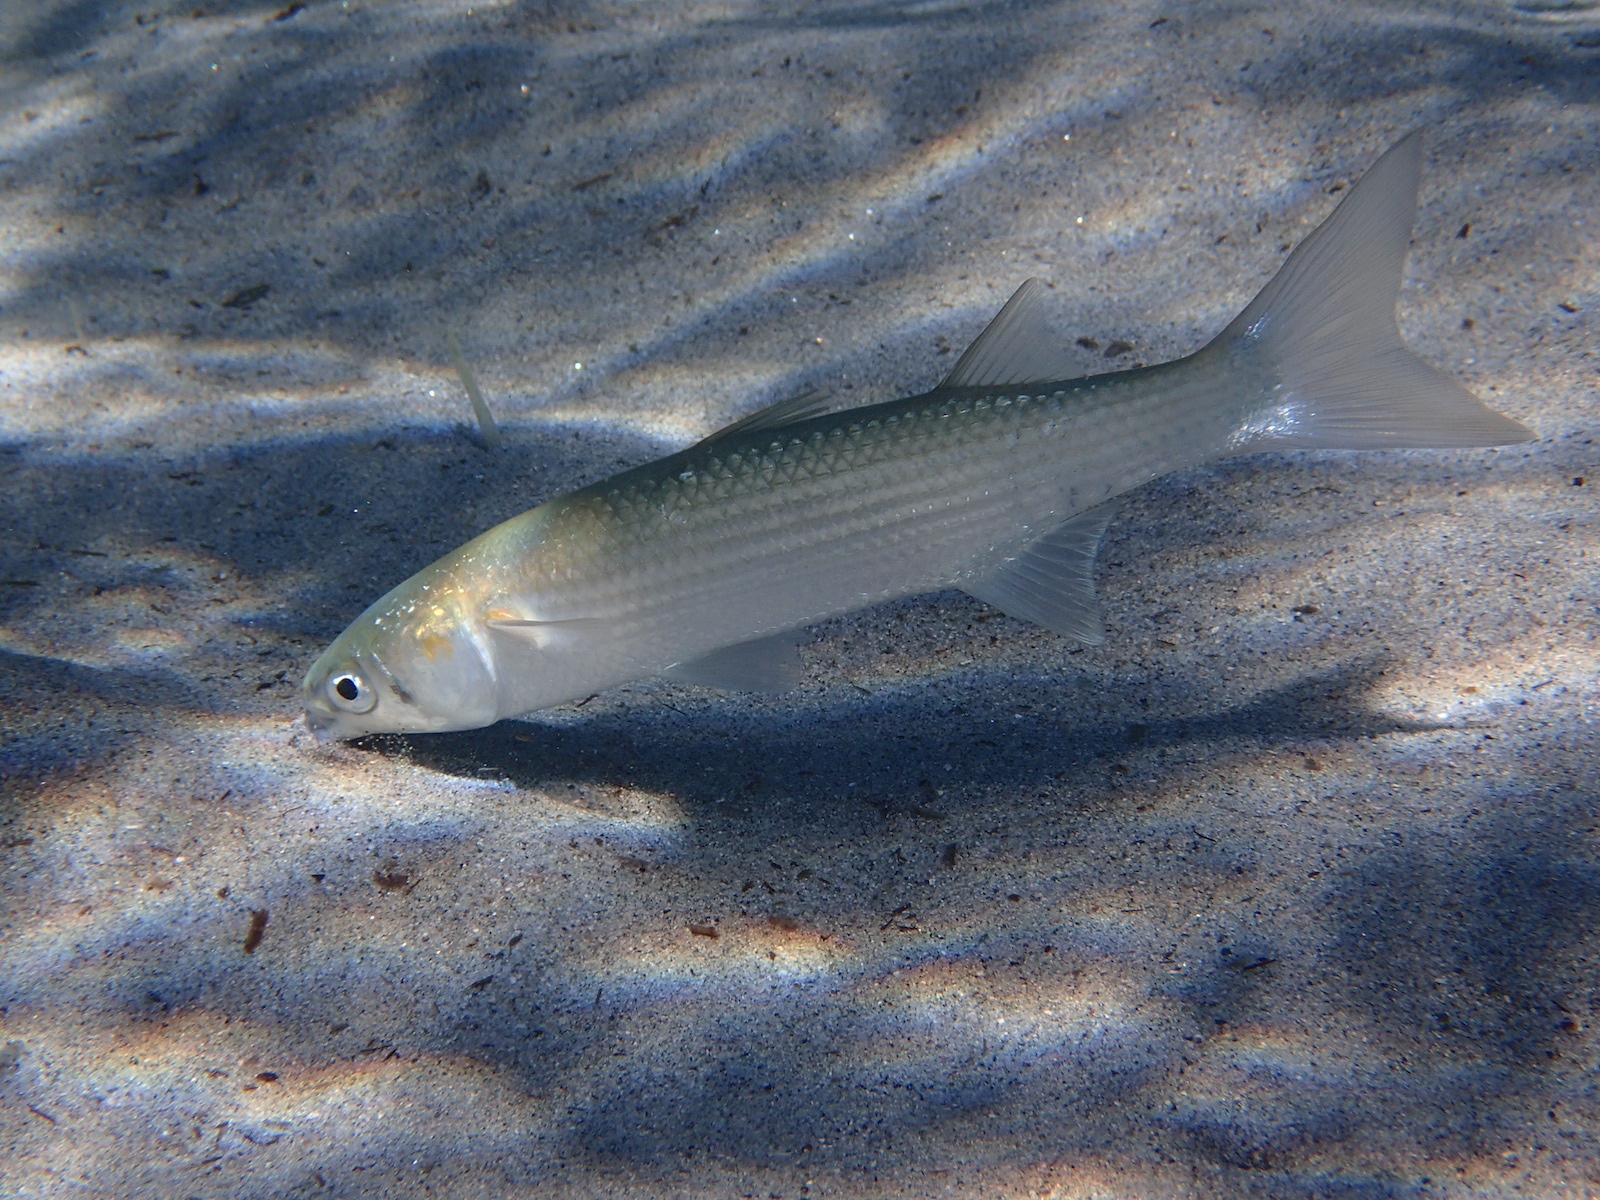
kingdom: Animalia
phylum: Chordata
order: Mugiliformes
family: Mugilidae
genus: Chelon
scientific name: Chelon auratus
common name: Golden grey mullet
